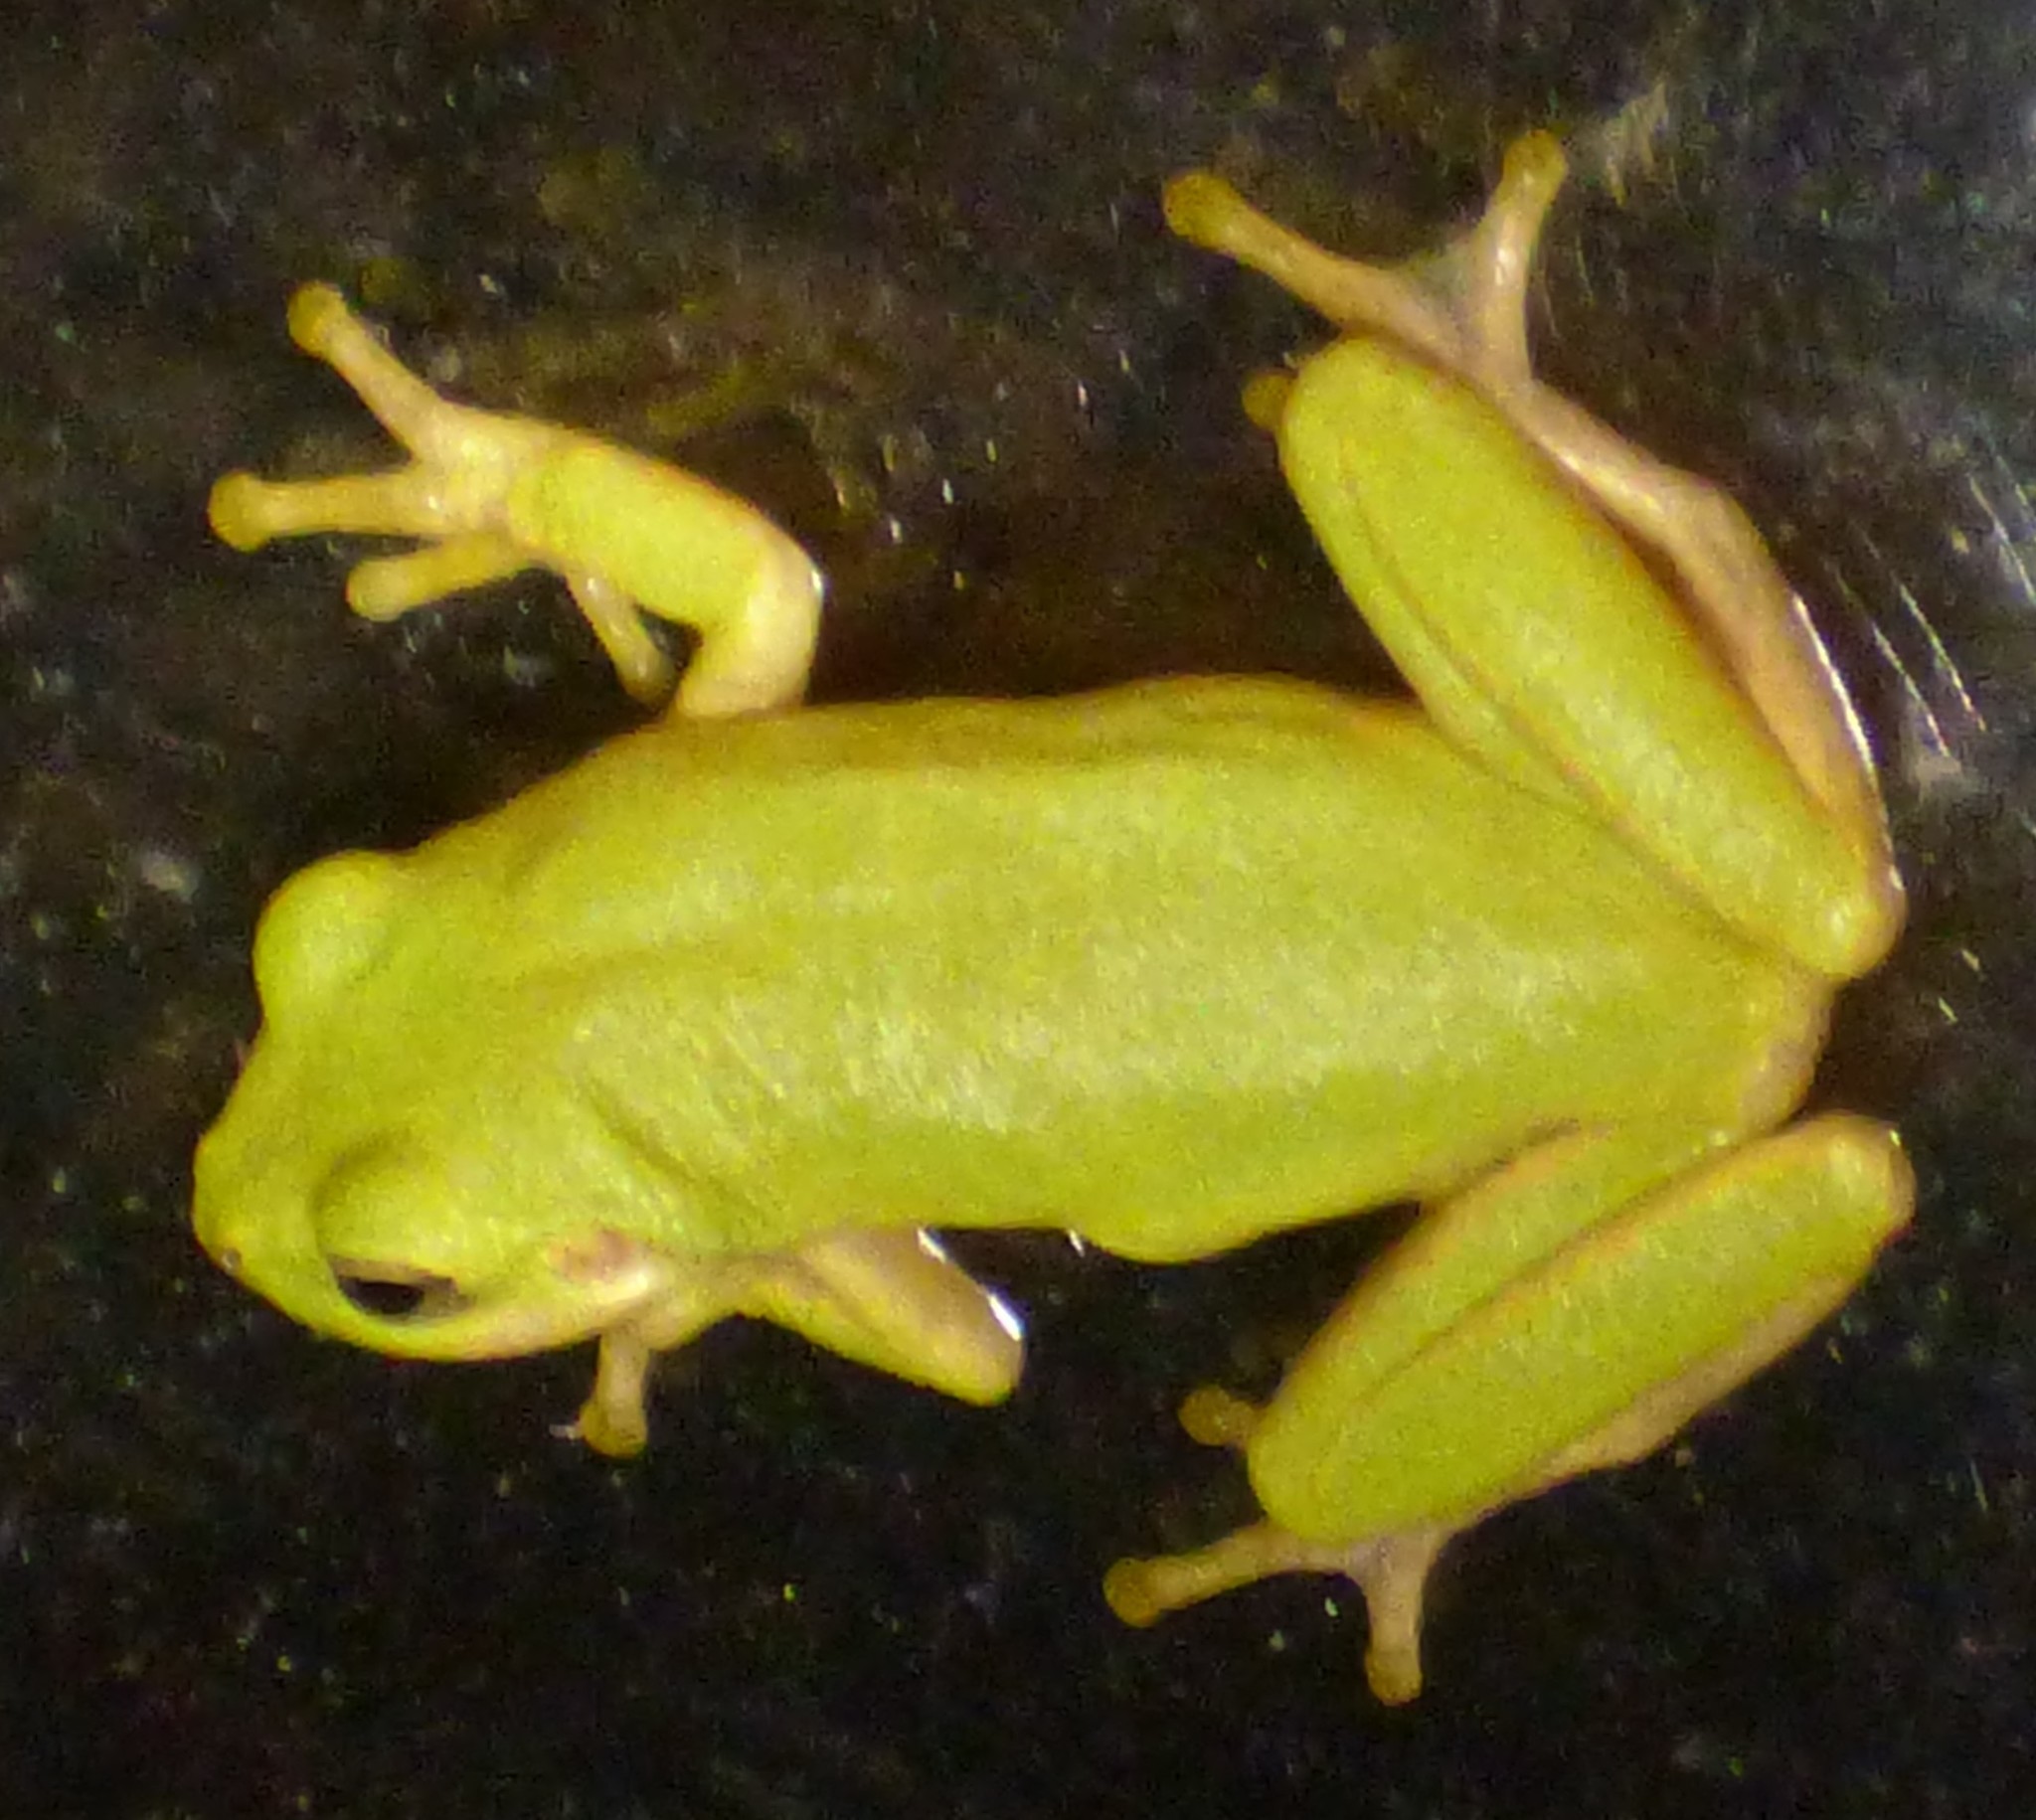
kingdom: Animalia
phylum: Chordata
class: Amphibia
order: Anura
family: Hylidae
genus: Dryophytes
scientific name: Dryophytes squirellus
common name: Squirrel treefrog
